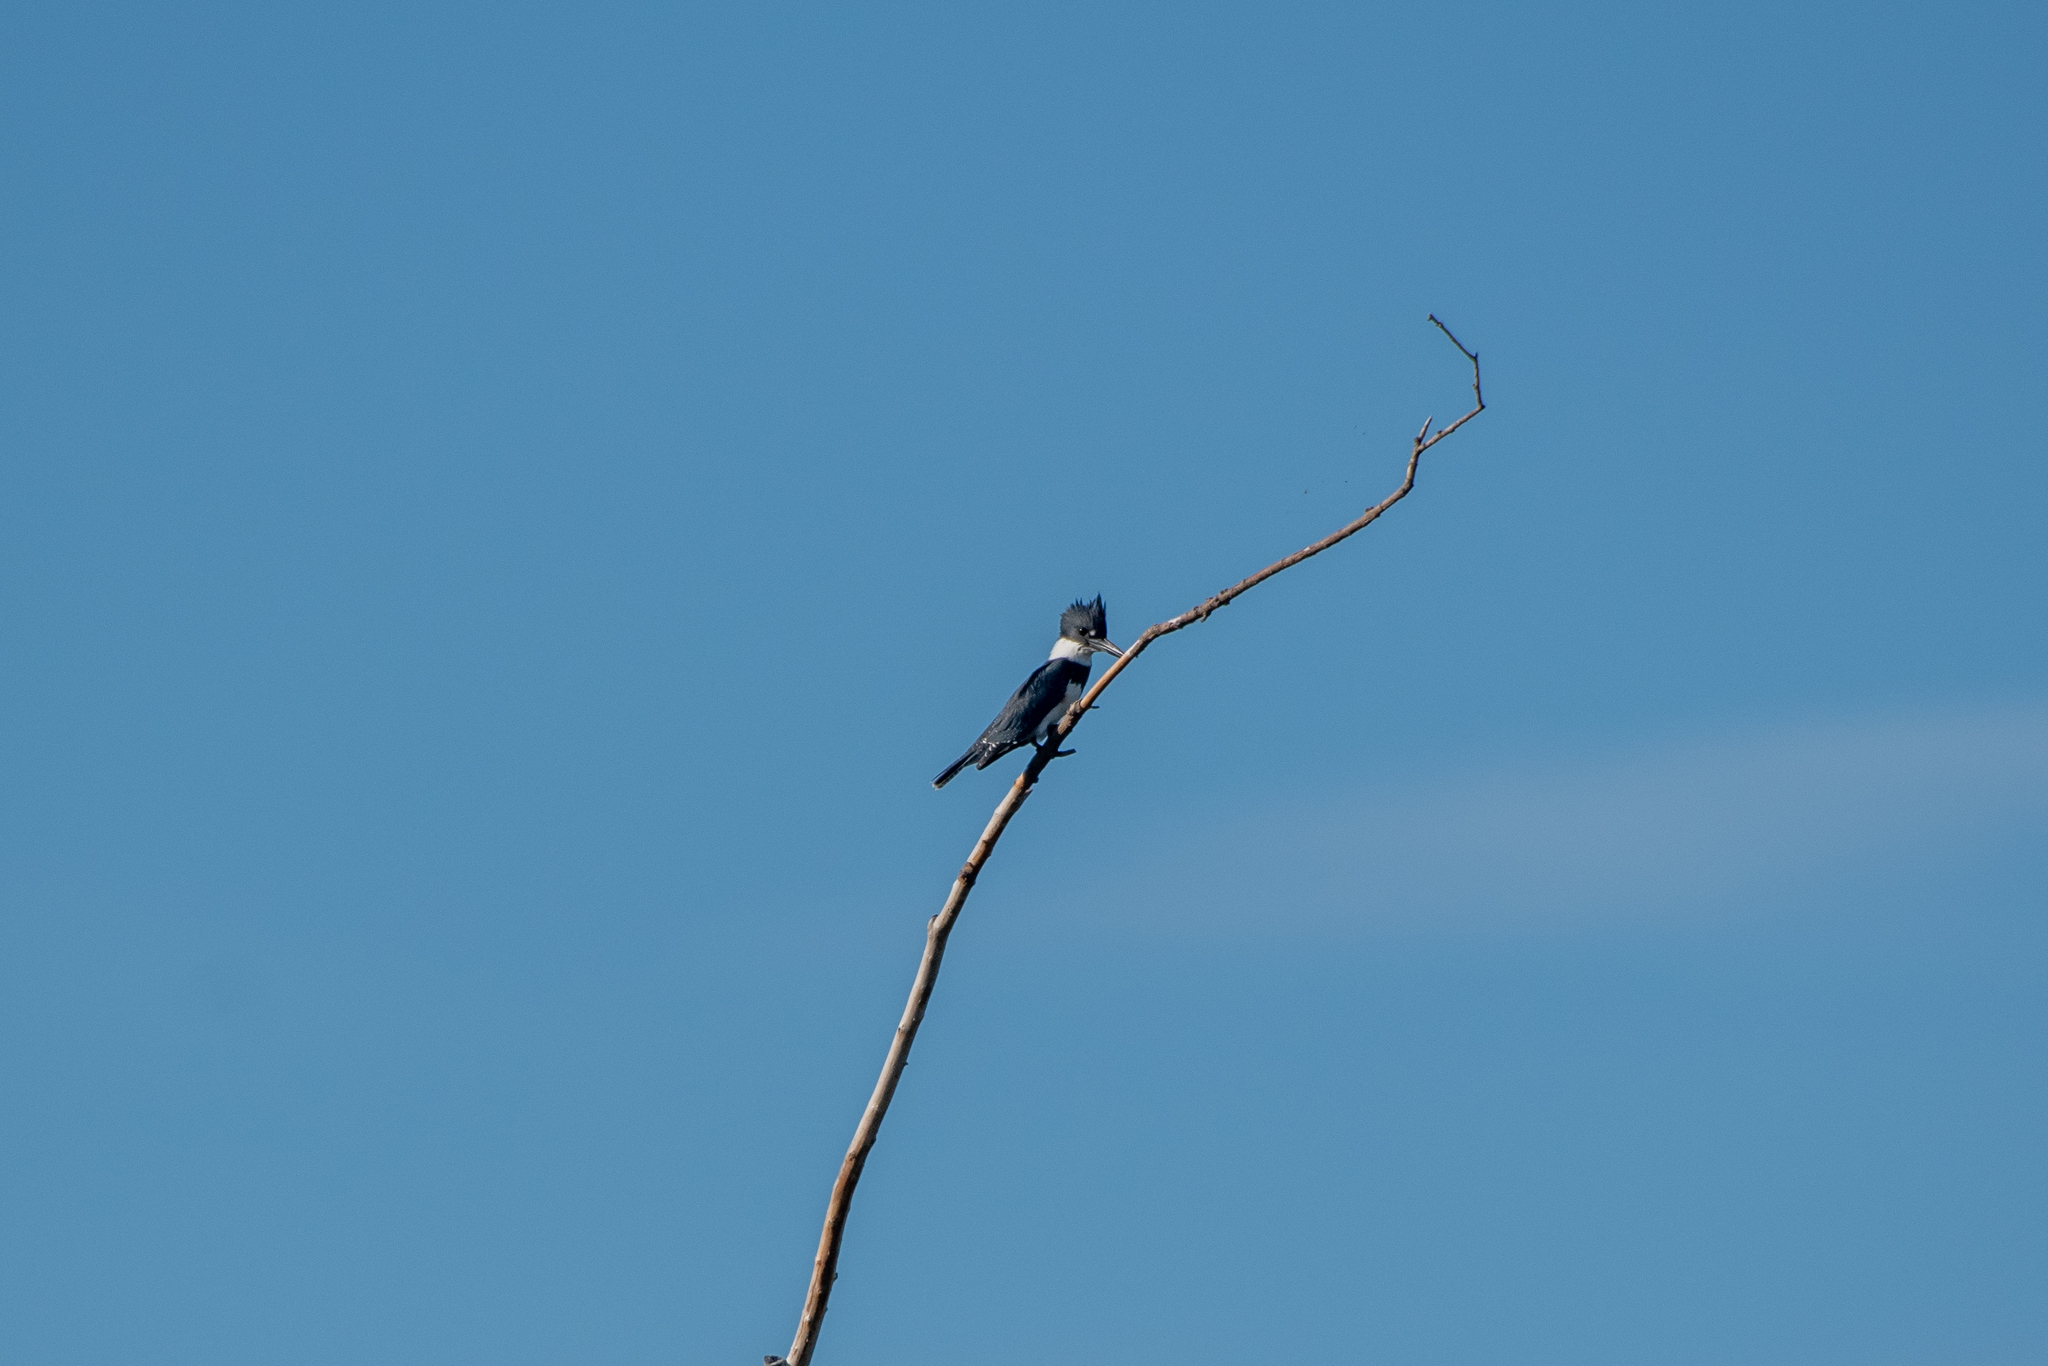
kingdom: Animalia
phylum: Chordata
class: Aves
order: Coraciiformes
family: Alcedinidae
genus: Megaceryle
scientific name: Megaceryle alcyon
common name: Belted kingfisher
